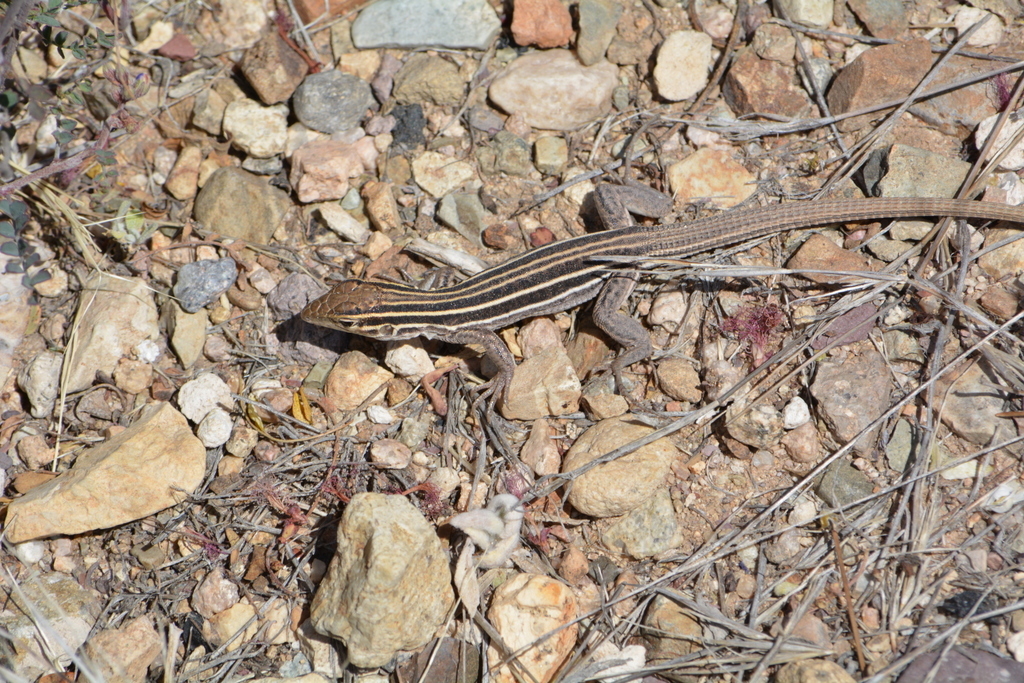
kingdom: Animalia
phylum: Chordata
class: Squamata
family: Teiidae
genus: Aspidoscelis
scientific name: Aspidoscelis uniparens
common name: Desert grassland whiptail
